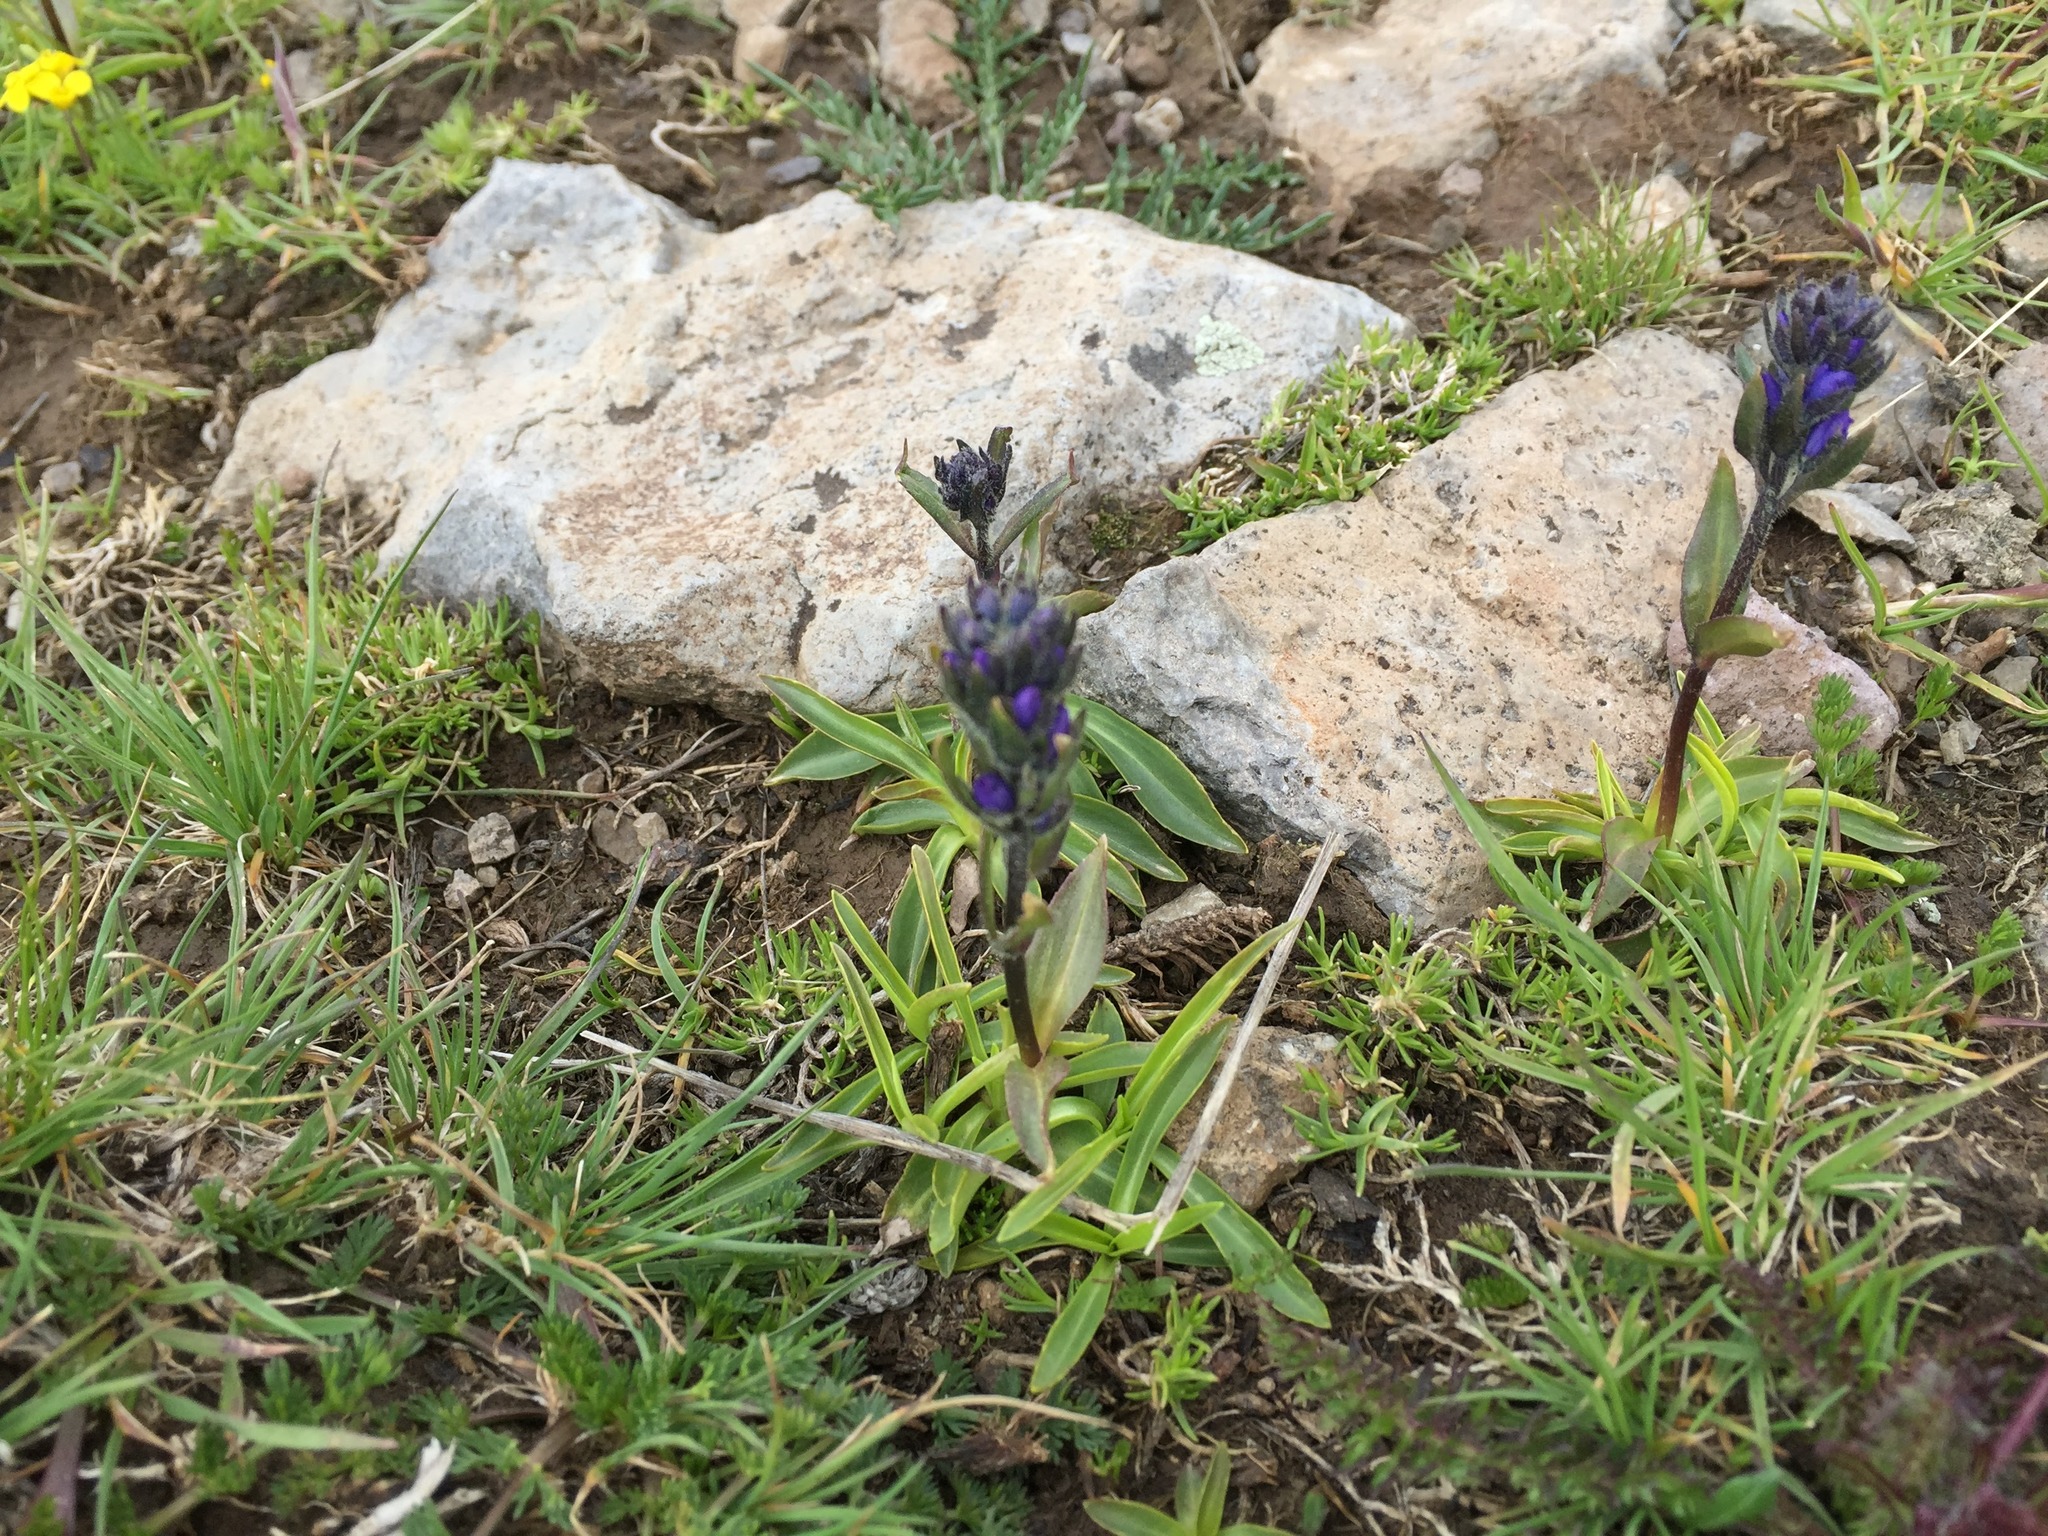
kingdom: Plantae
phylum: Tracheophyta
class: Magnoliopsida
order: Lamiales
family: Plantaginaceae
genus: Veronica
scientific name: Veronica gentianoides
